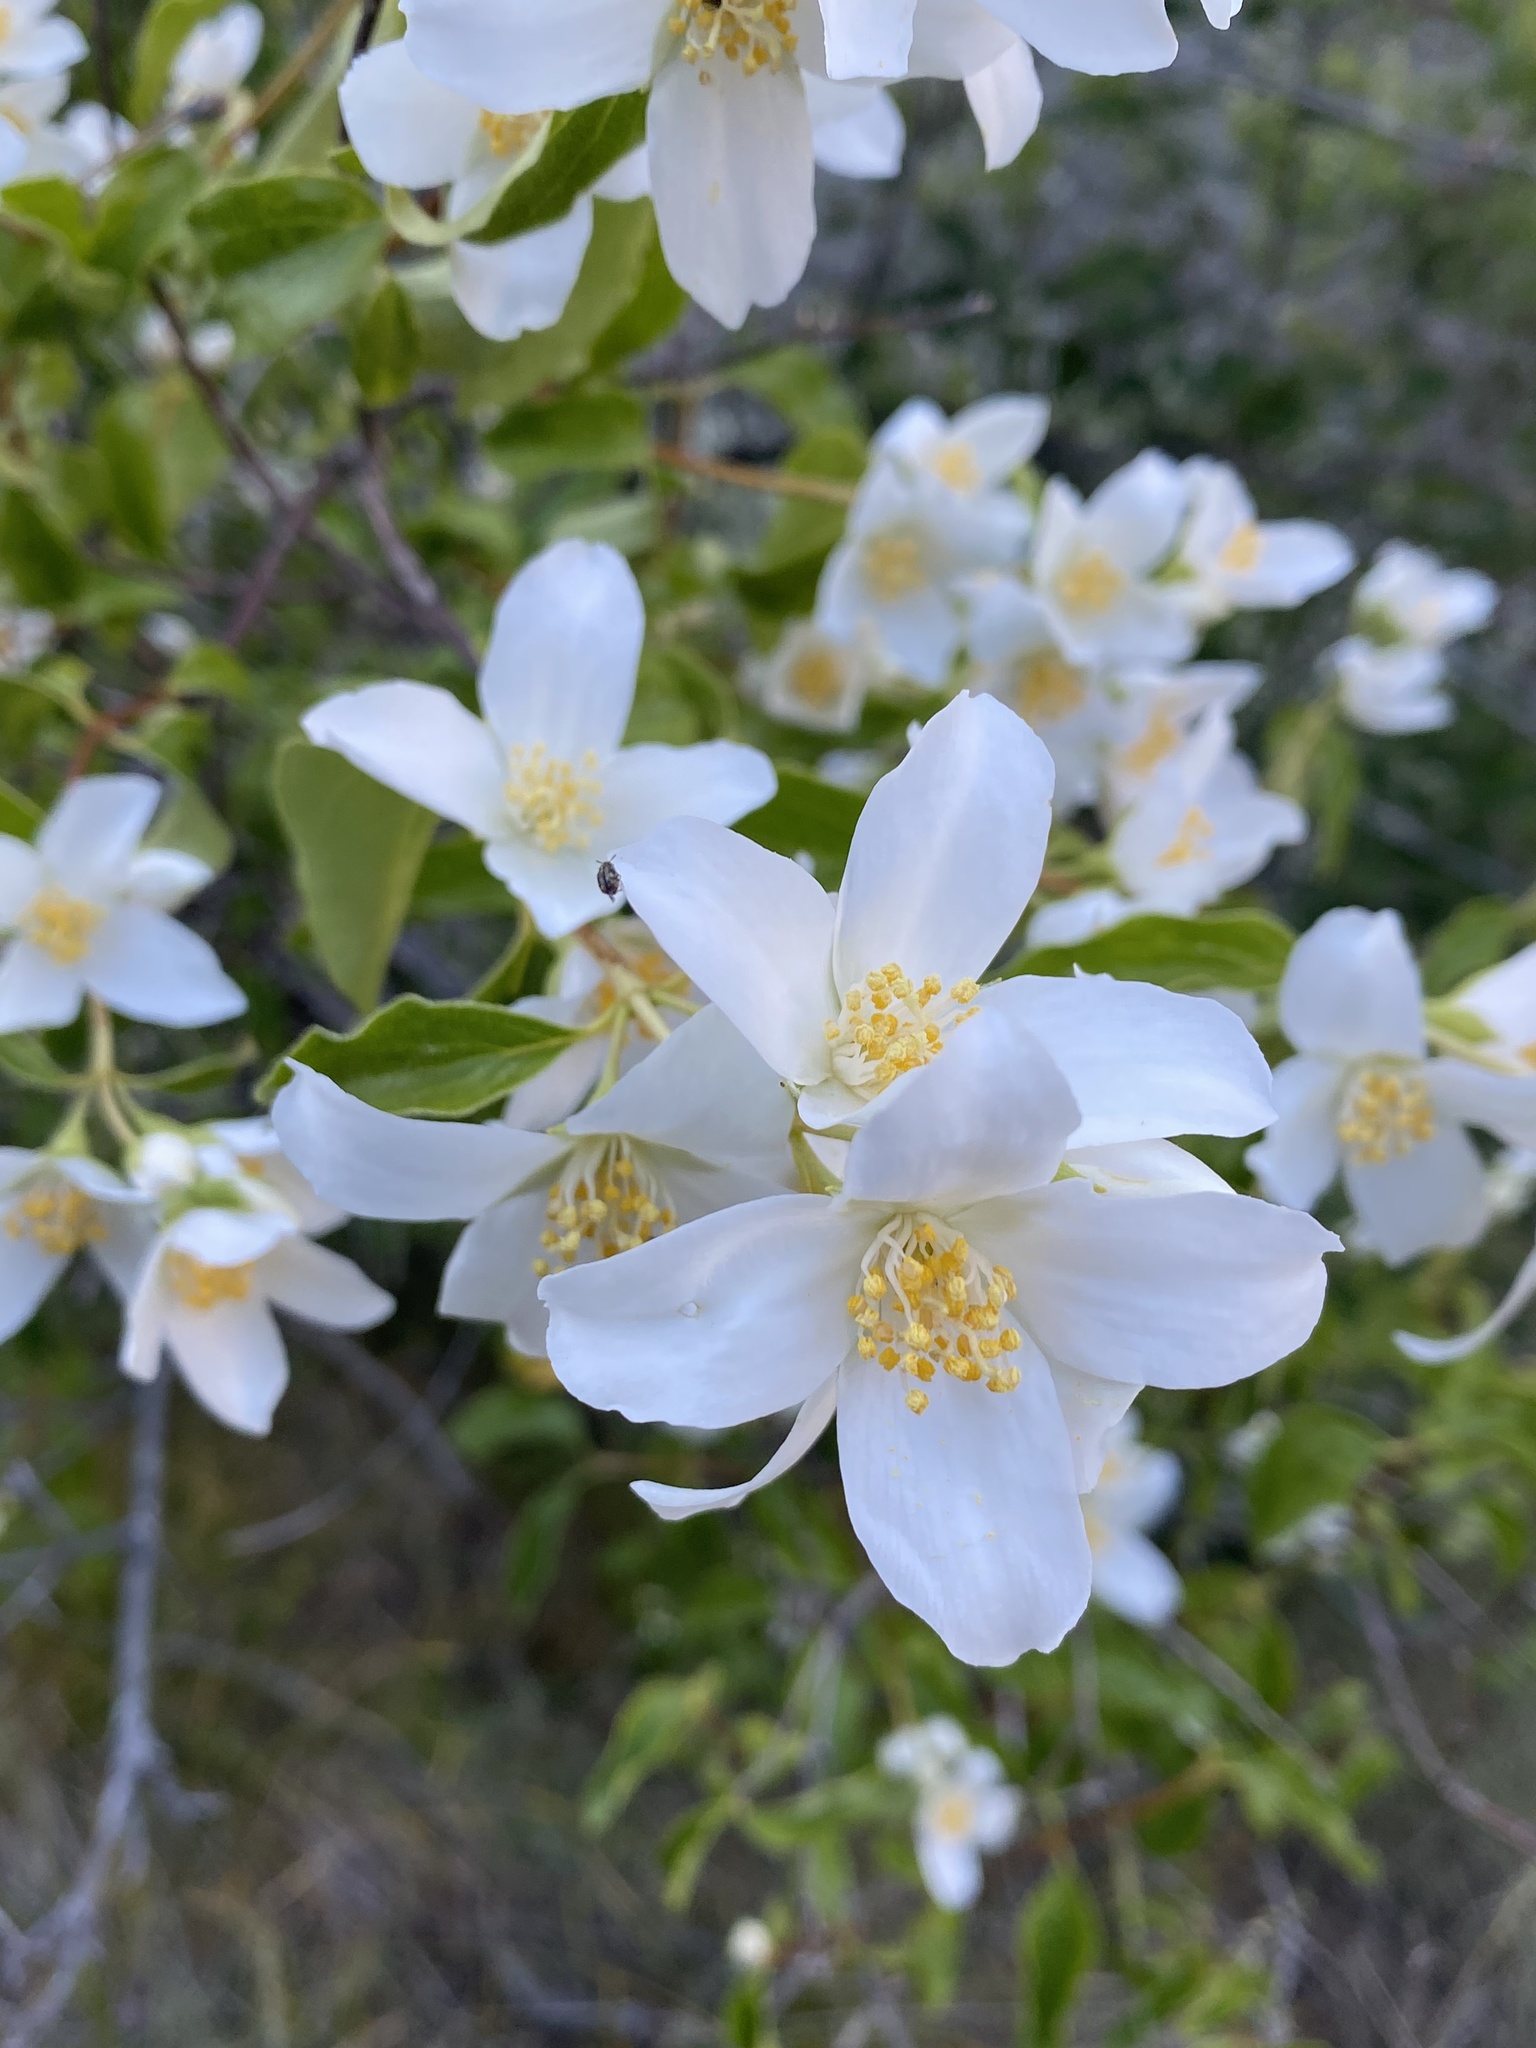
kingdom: Plantae
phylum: Tracheophyta
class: Magnoliopsida
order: Cornales
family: Hydrangeaceae
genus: Philadelphus
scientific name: Philadelphus lewisii
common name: Lewis's mock orange
